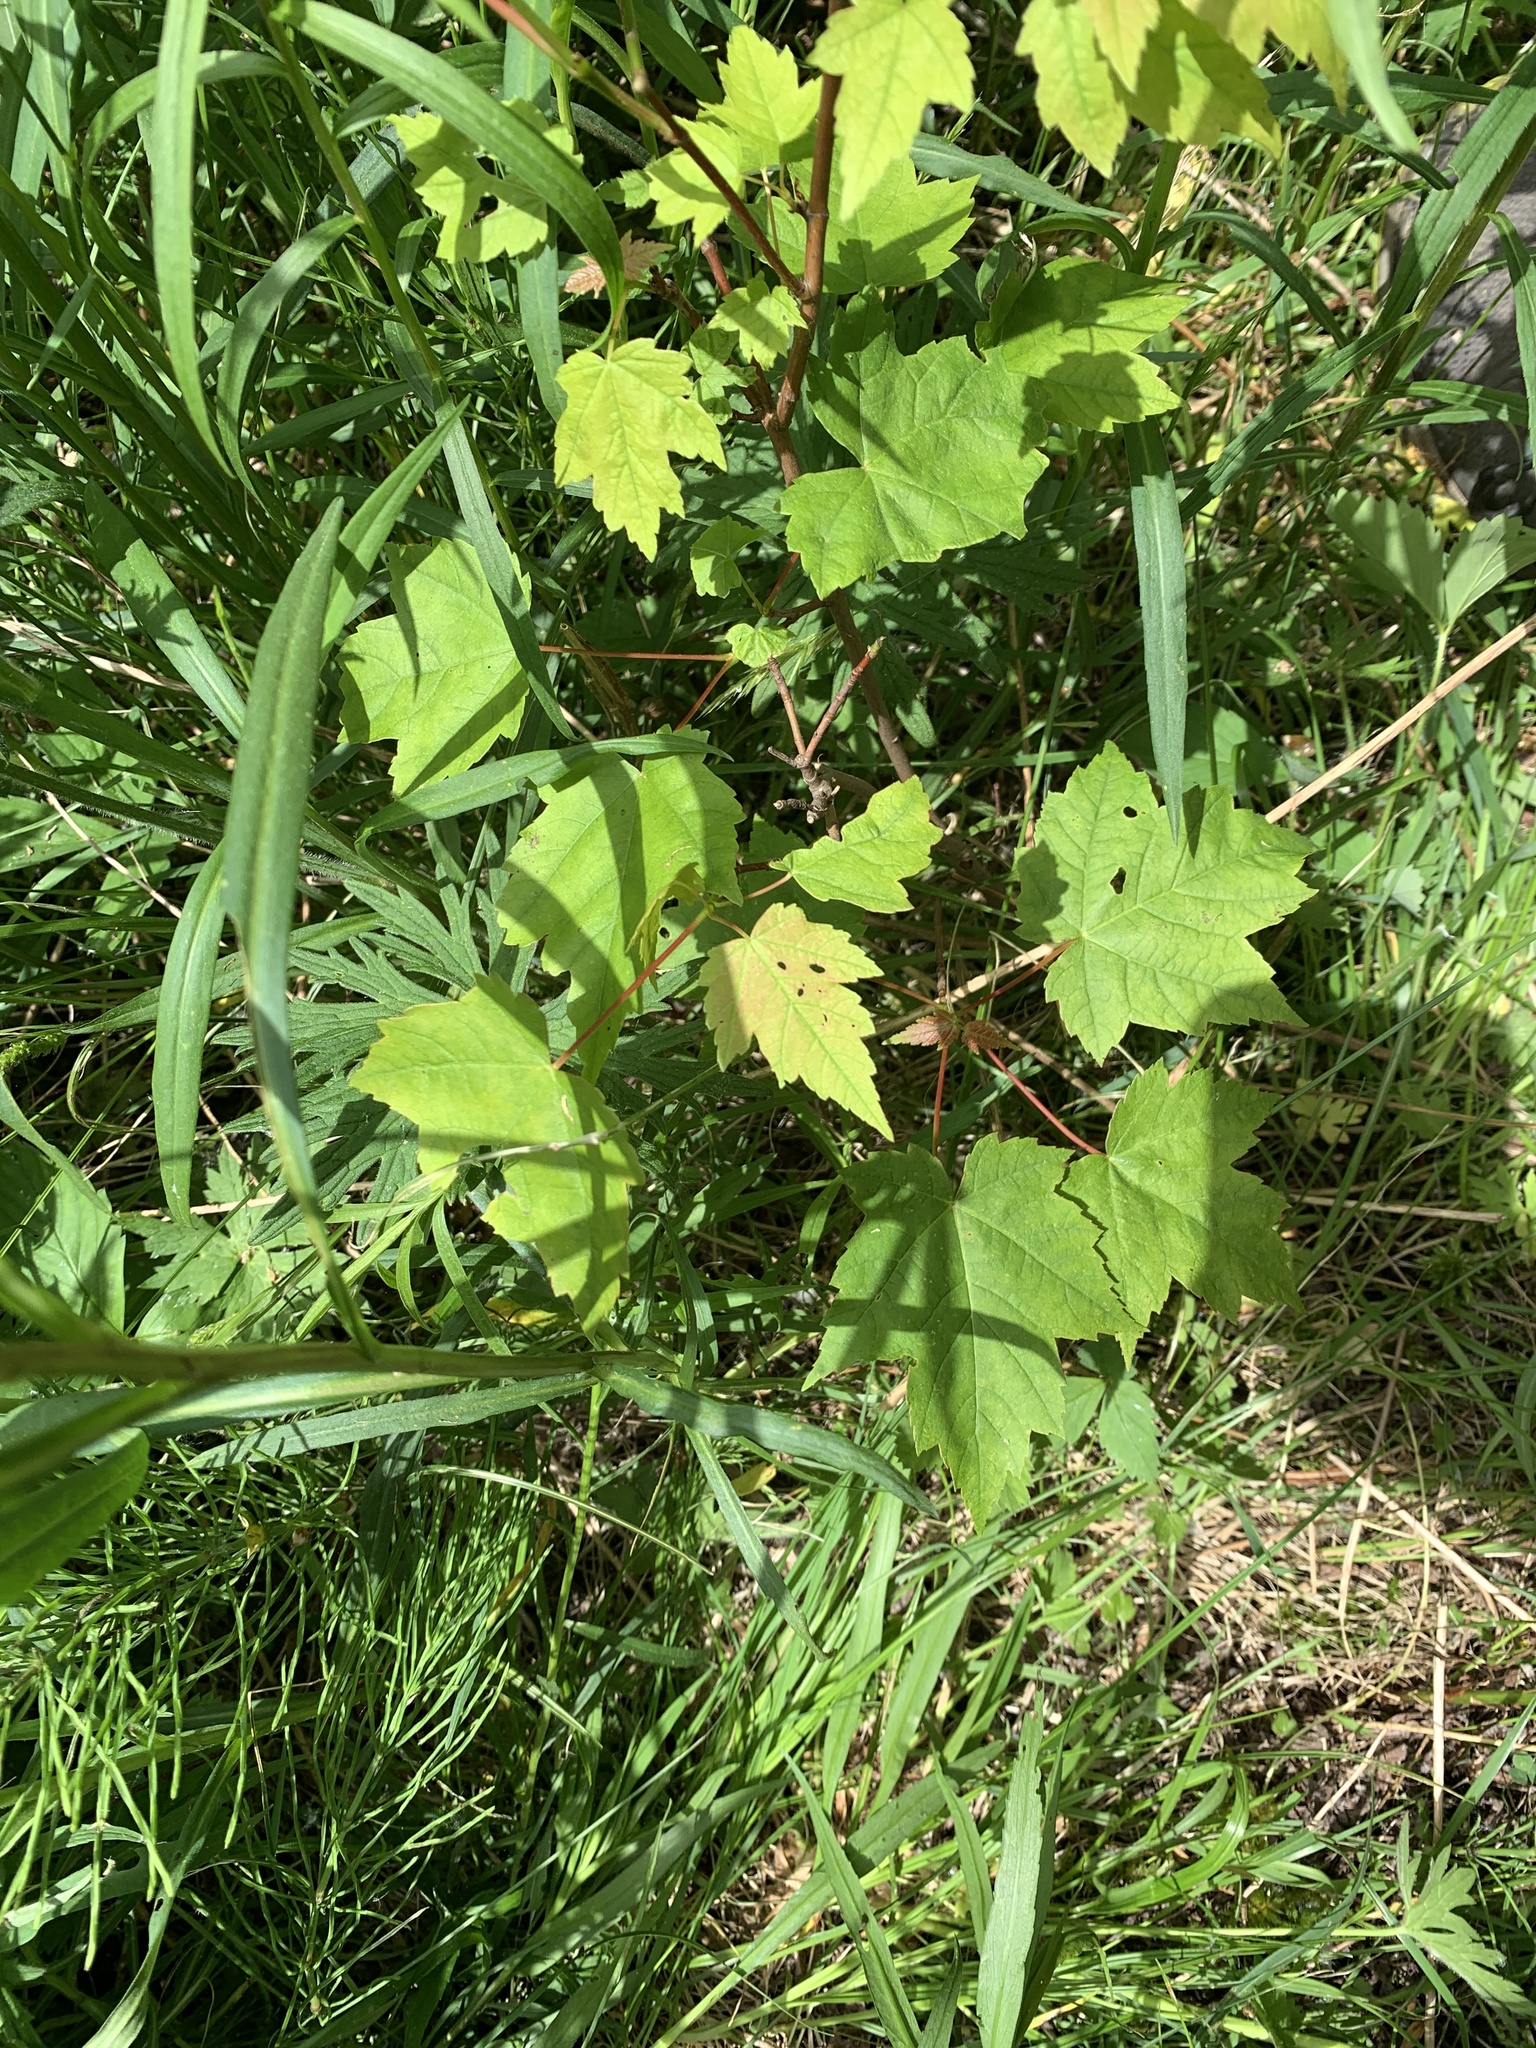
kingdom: Plantae
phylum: Tracheophyta
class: Magnoliopsida
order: Sapindales
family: Sapindaceae
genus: Acer
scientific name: Acer rubrum
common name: Red maple
